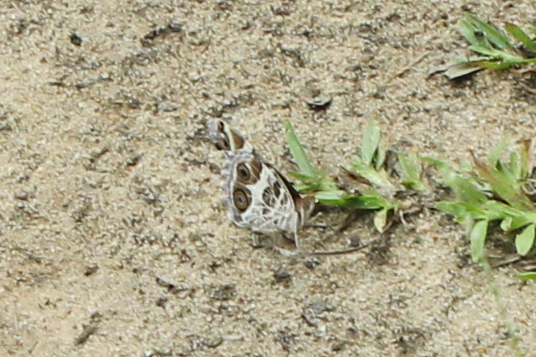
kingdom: Animalia
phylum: Arthropoda
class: Insecta
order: Lepidoptera
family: Nymphalidae
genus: Vanessa
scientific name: Vanessa virginiensis
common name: American lady
